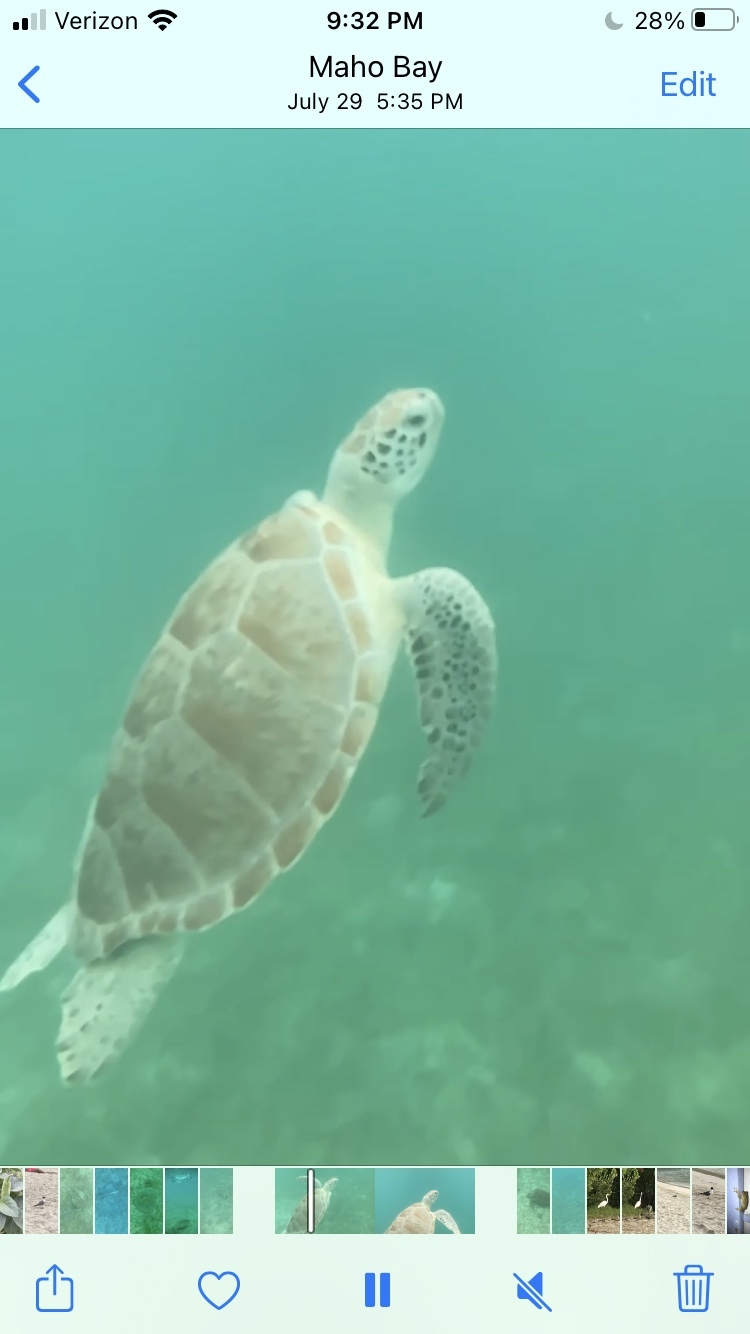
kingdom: Animalia
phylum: Chordata
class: Testudines
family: Cheloniidae
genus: Chelonia
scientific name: Chelonia mydas
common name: Green turtle
